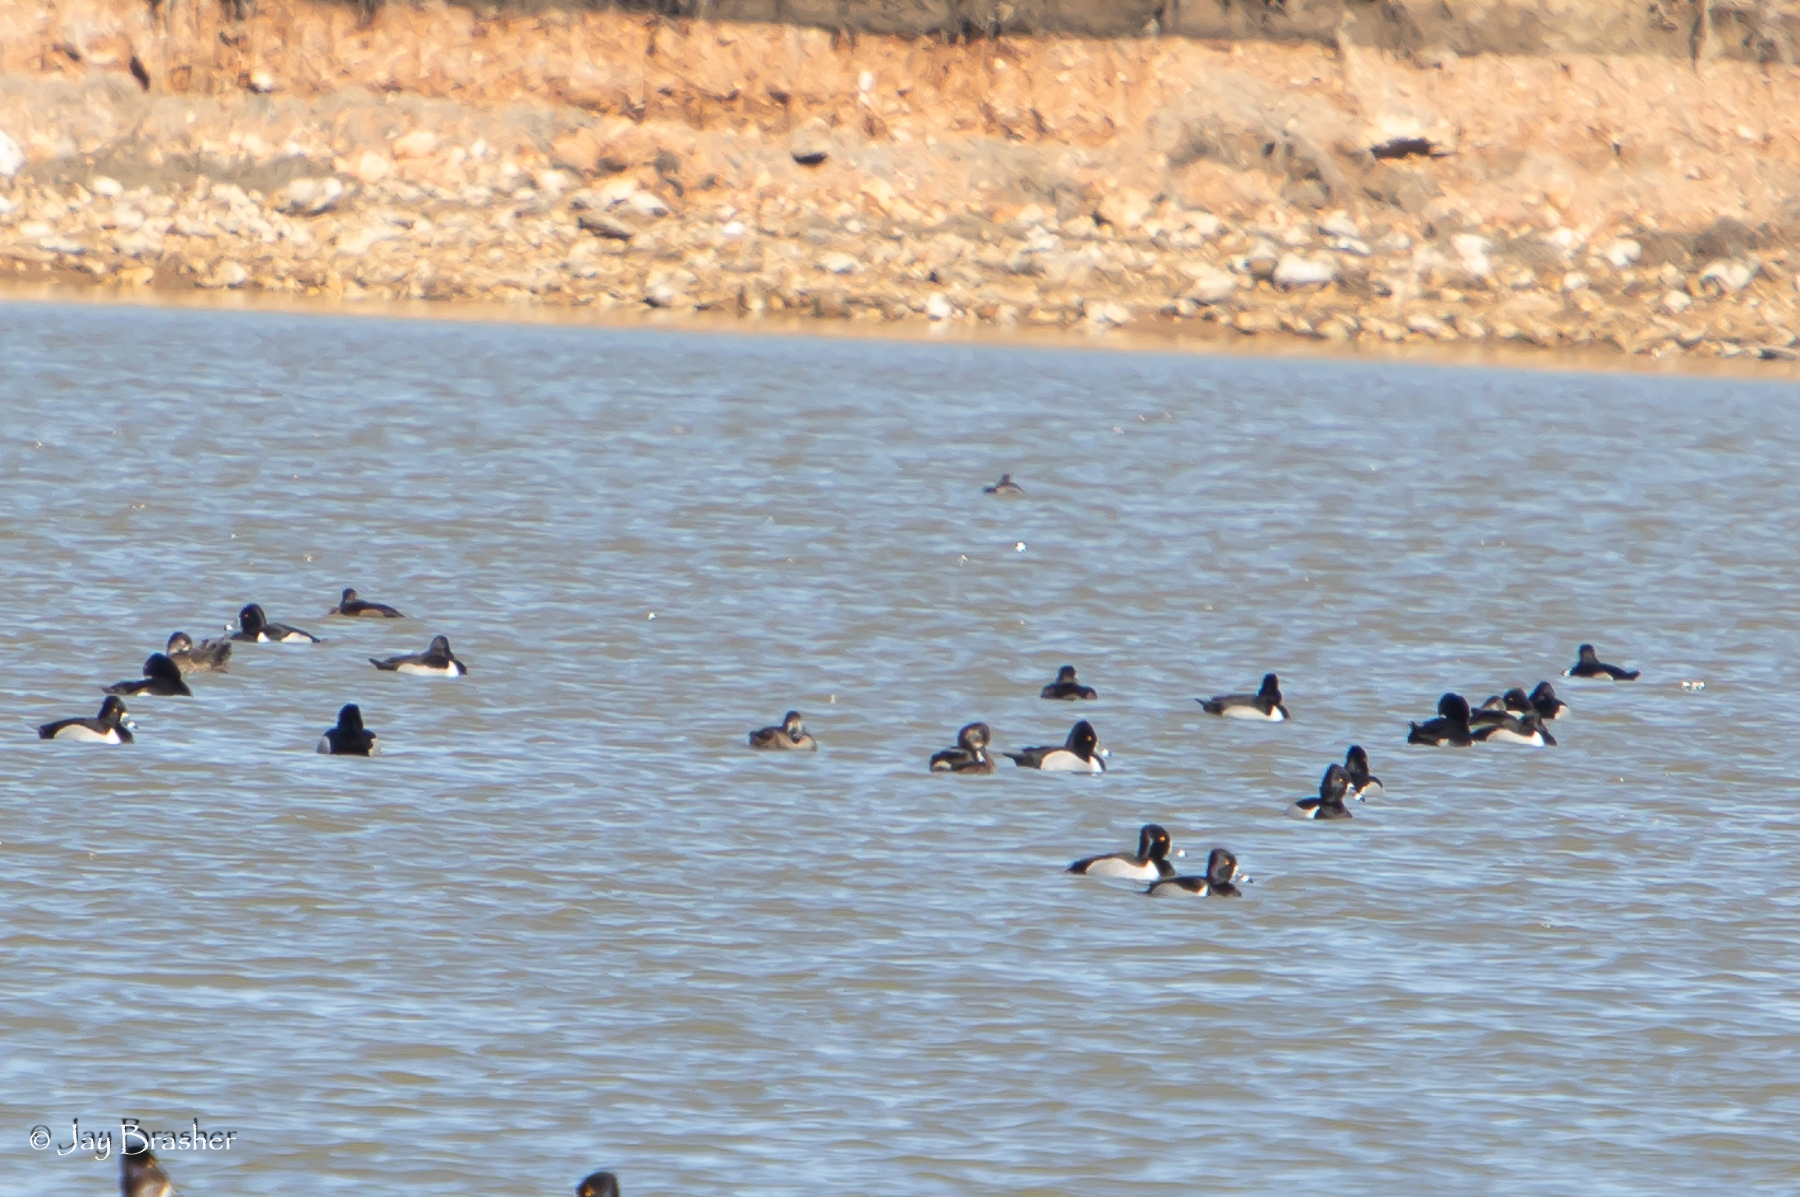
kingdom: Animalia
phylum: Chordata
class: Aves
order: Anseriformes
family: Anatidae
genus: Aythya
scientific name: Aythya collaris
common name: Ring-necked duck
